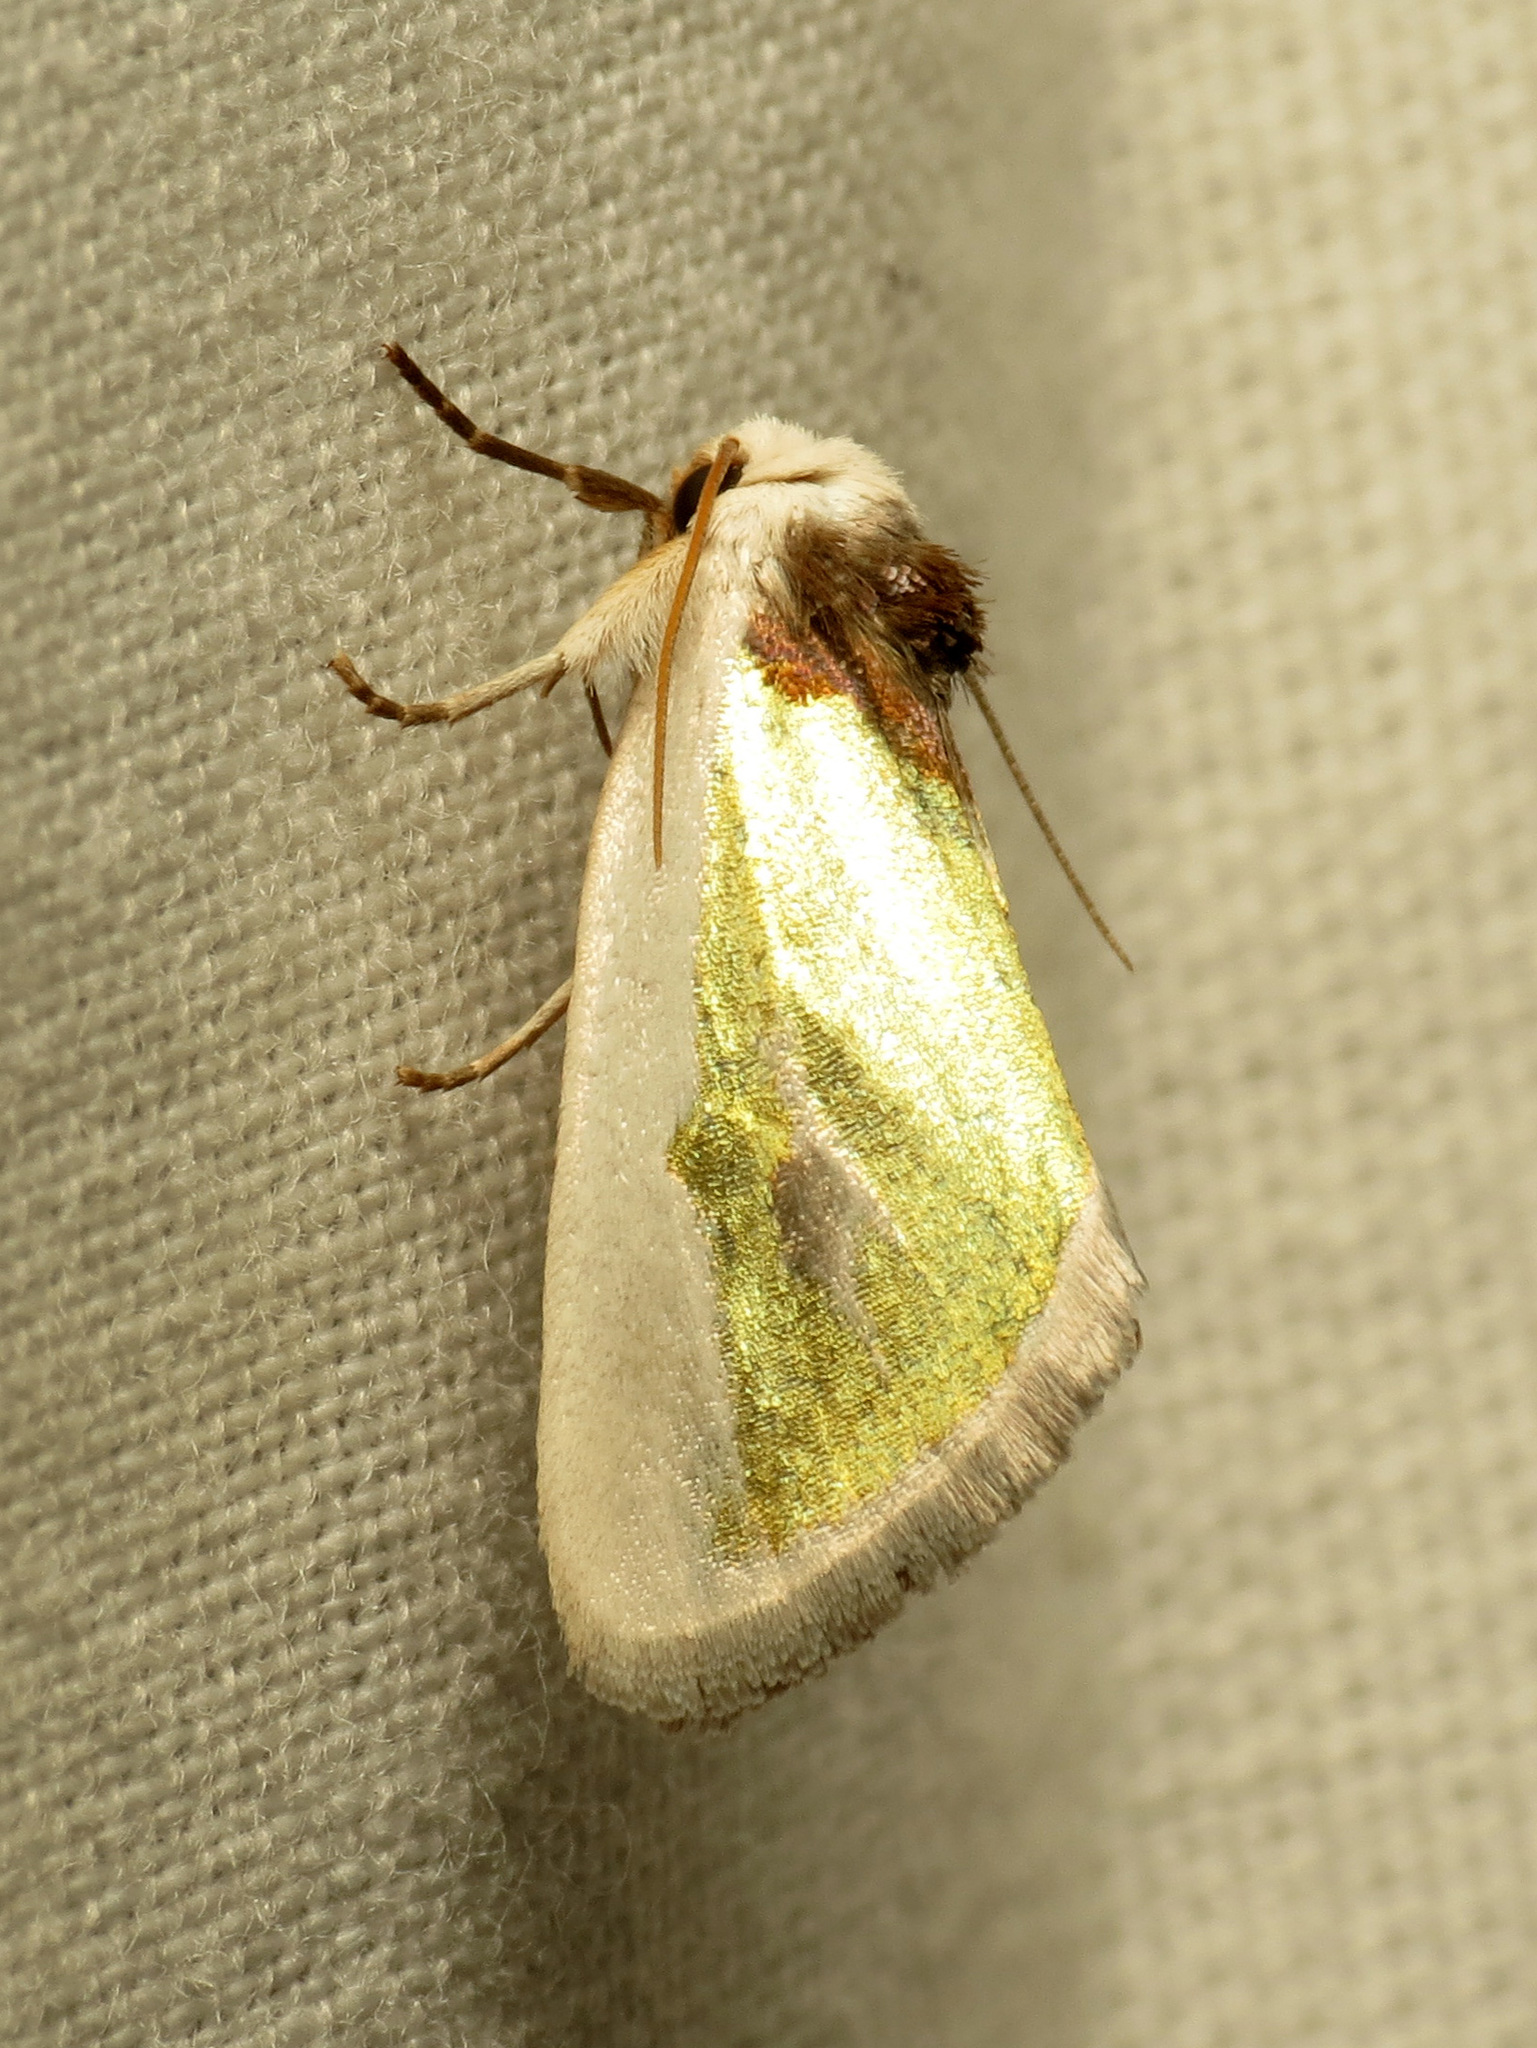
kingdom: Animalia
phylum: Arthropoda
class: Insecta
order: Lepidoptera
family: Noctuidae
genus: Neumoegenia
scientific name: Neumoegenia poetica
